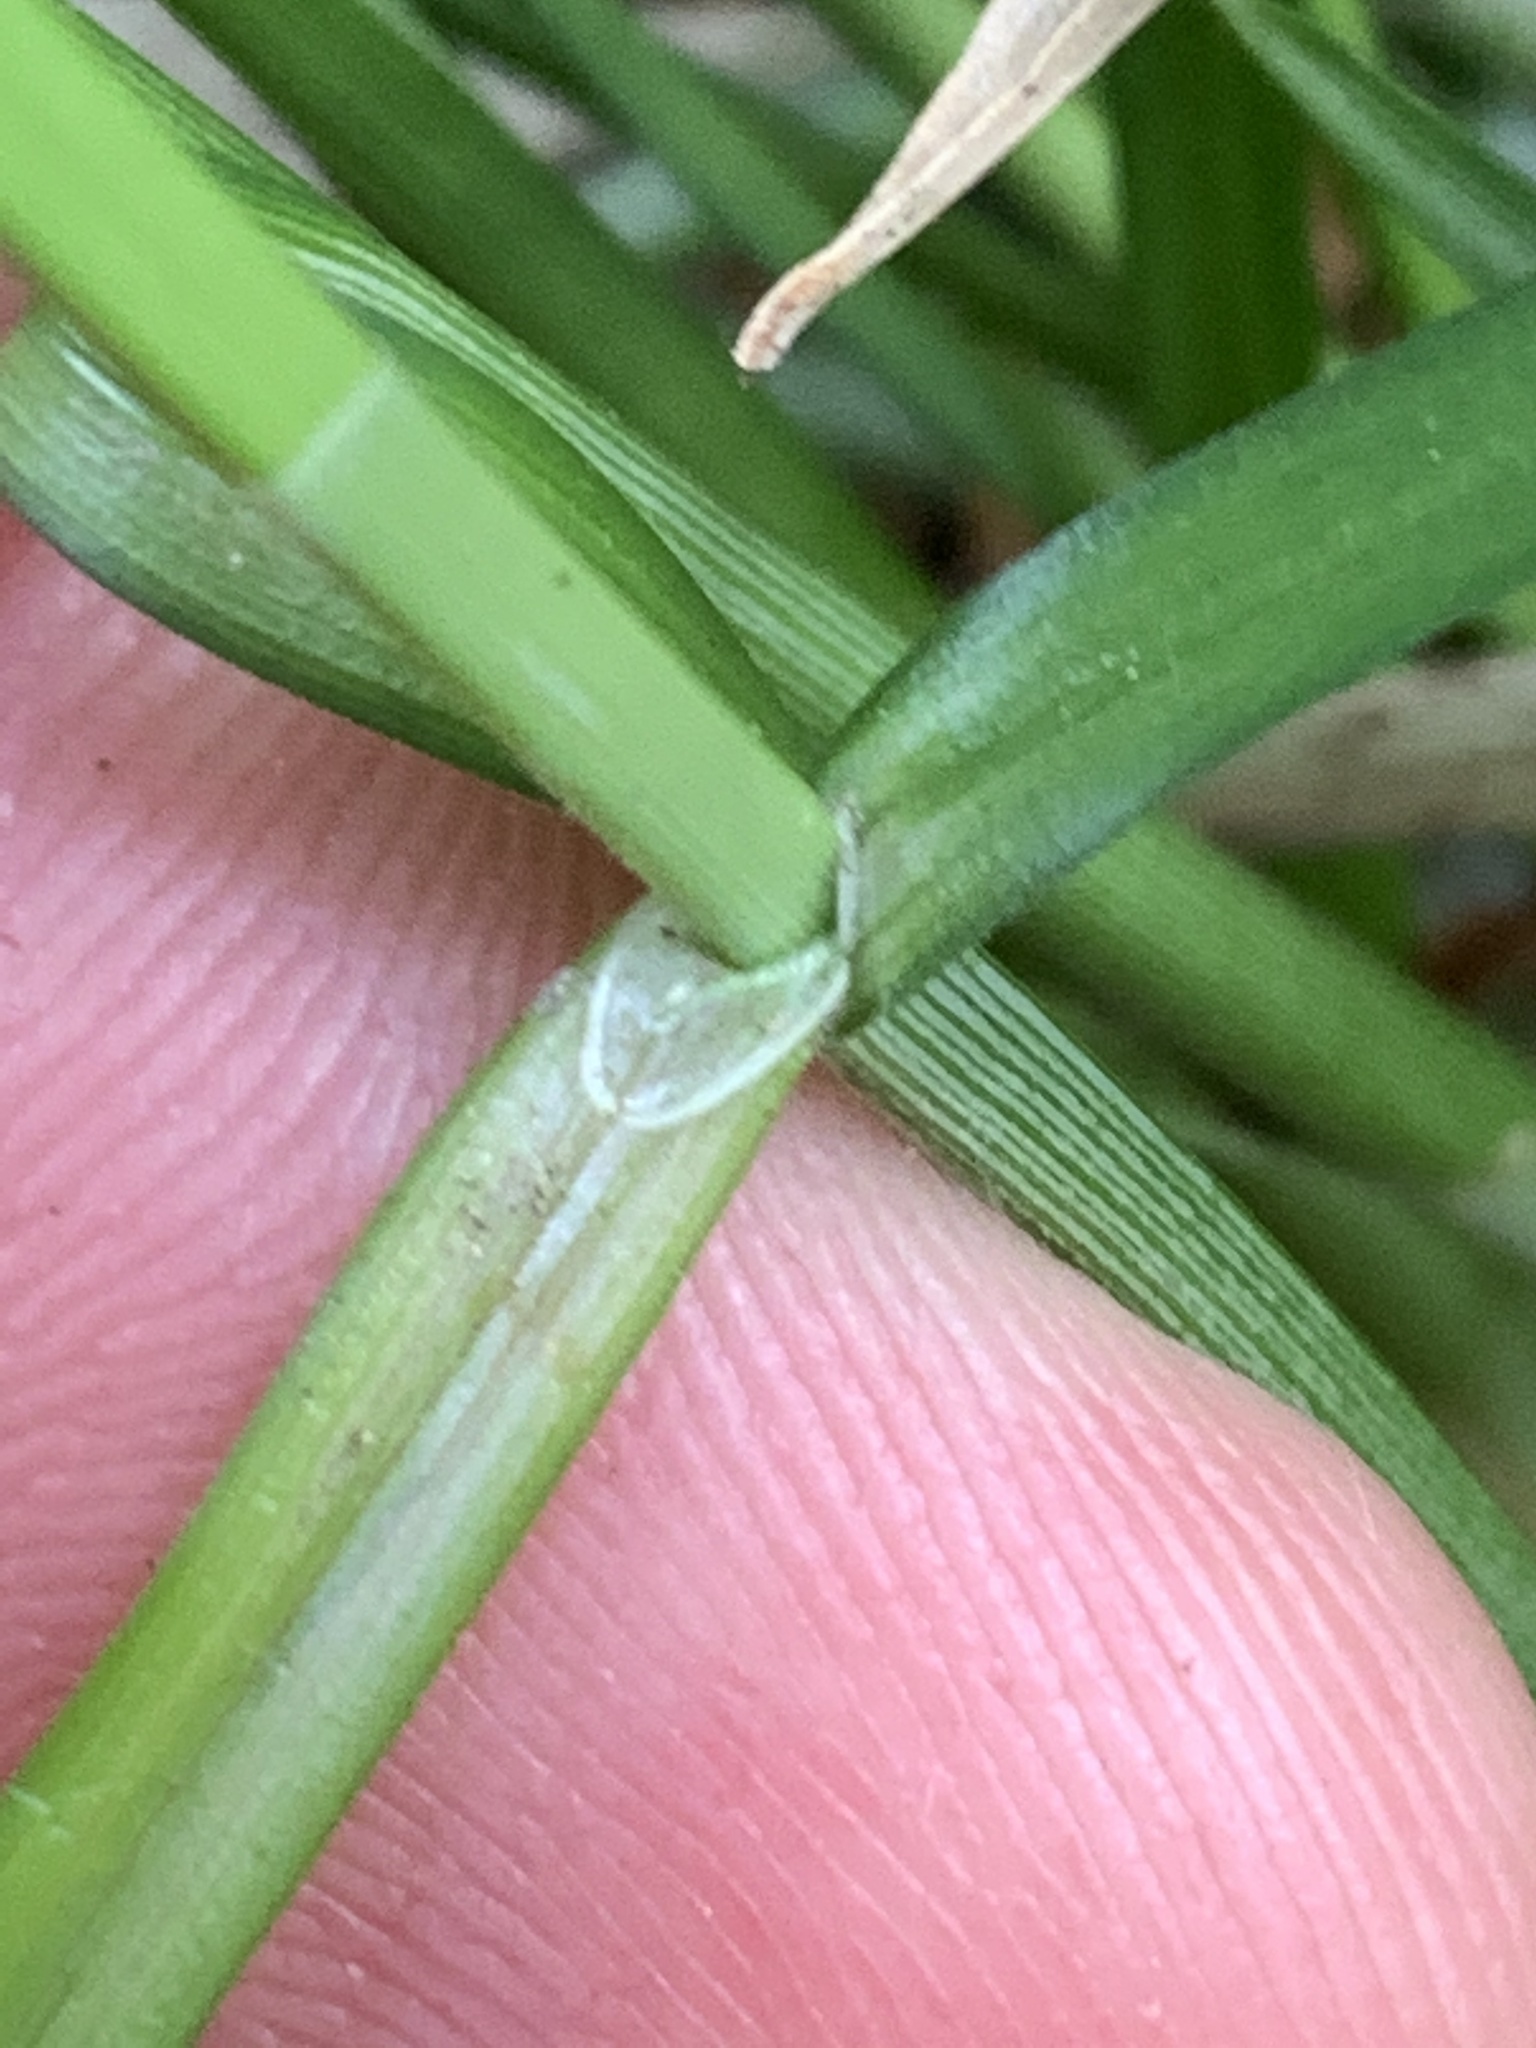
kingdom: Plantae
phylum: Tracheophyta
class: Liliopsida
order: Poales
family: Cyperaceae
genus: Carex
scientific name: Carex leersii
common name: Leers' sedge
